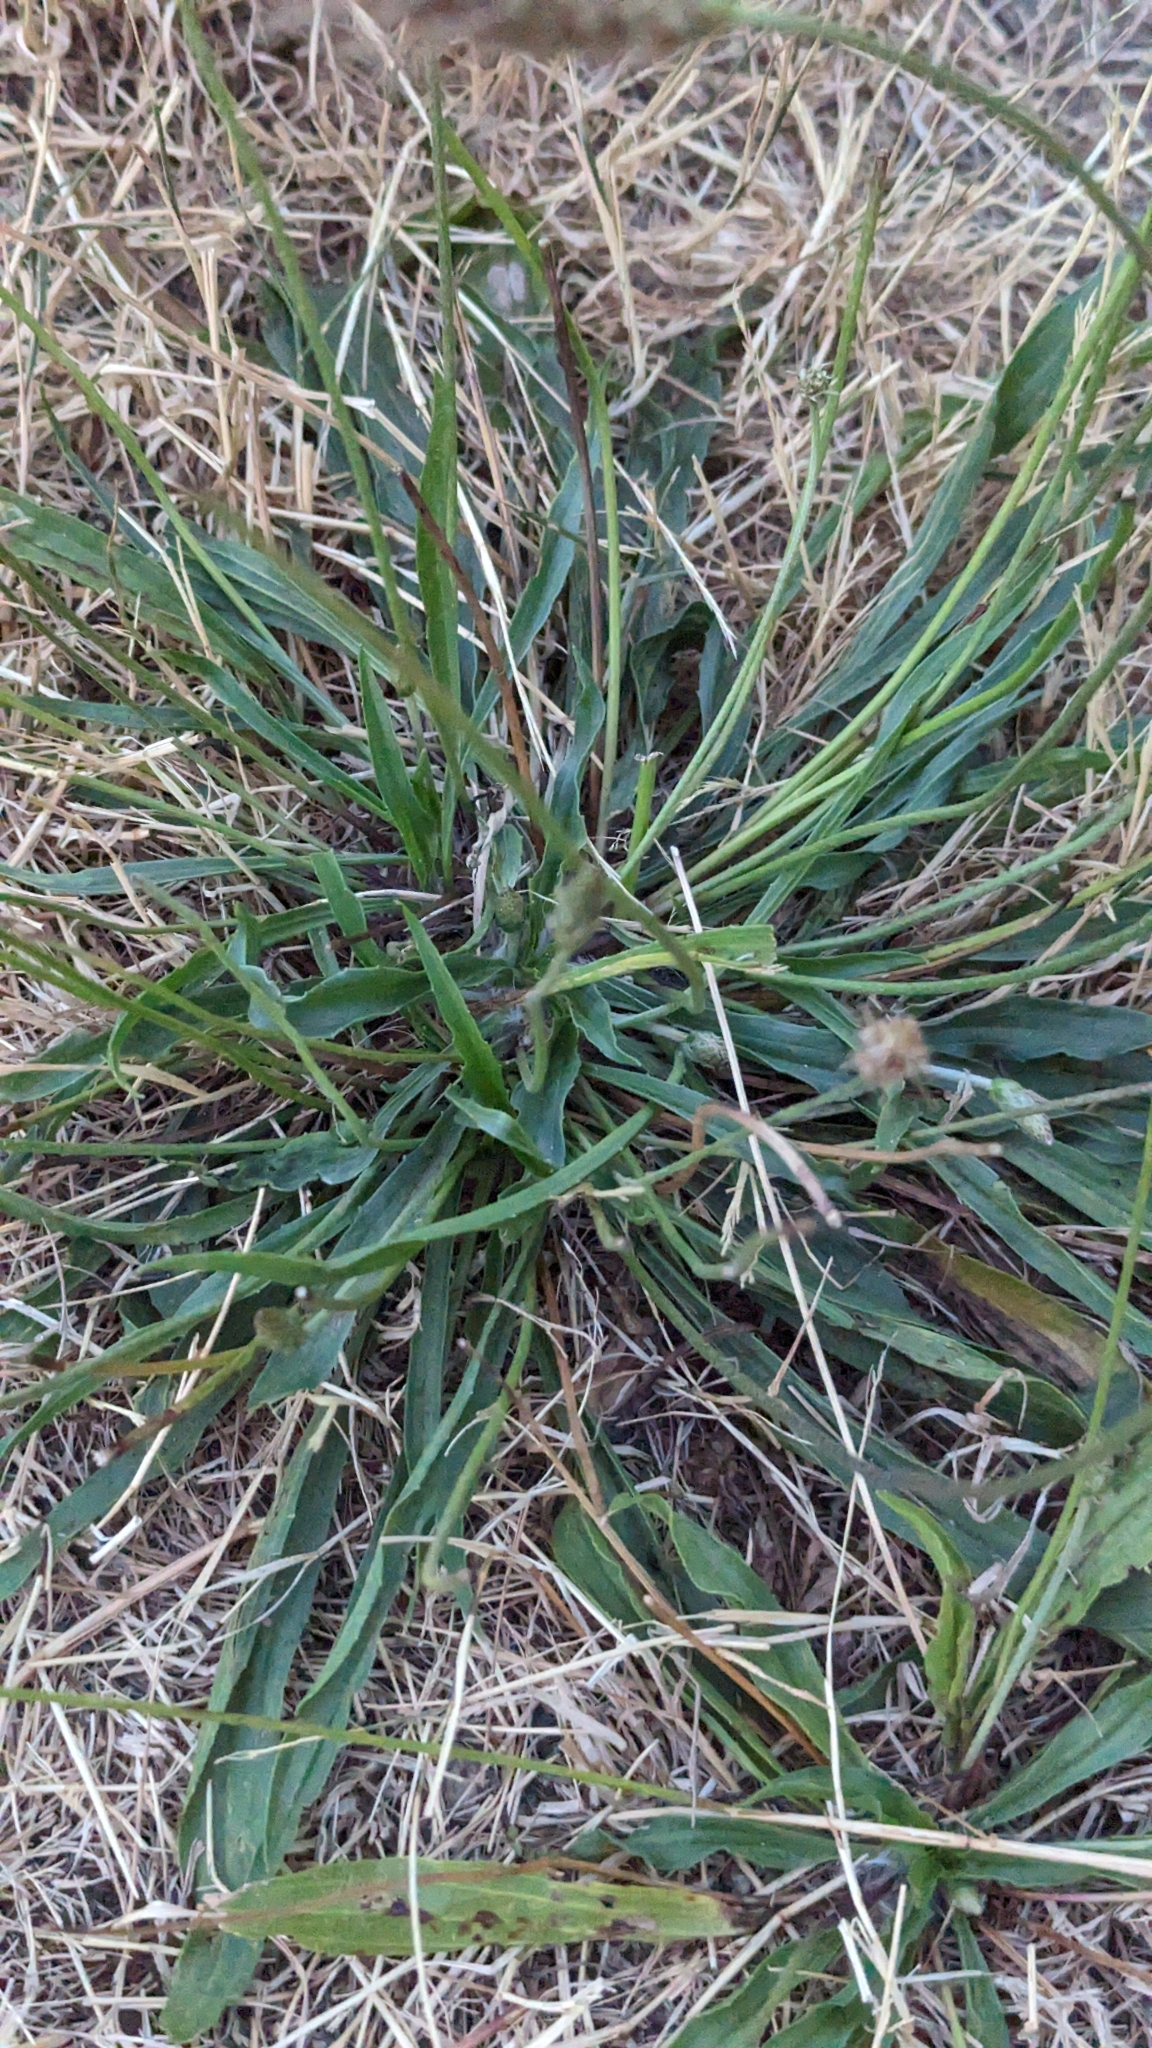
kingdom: Plantae
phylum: Tracheophyta
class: Magnoliopsida
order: Lamiales
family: Plantaginaceae
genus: Plantago
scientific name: Plantago lanceolata
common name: Ribwort plantain
